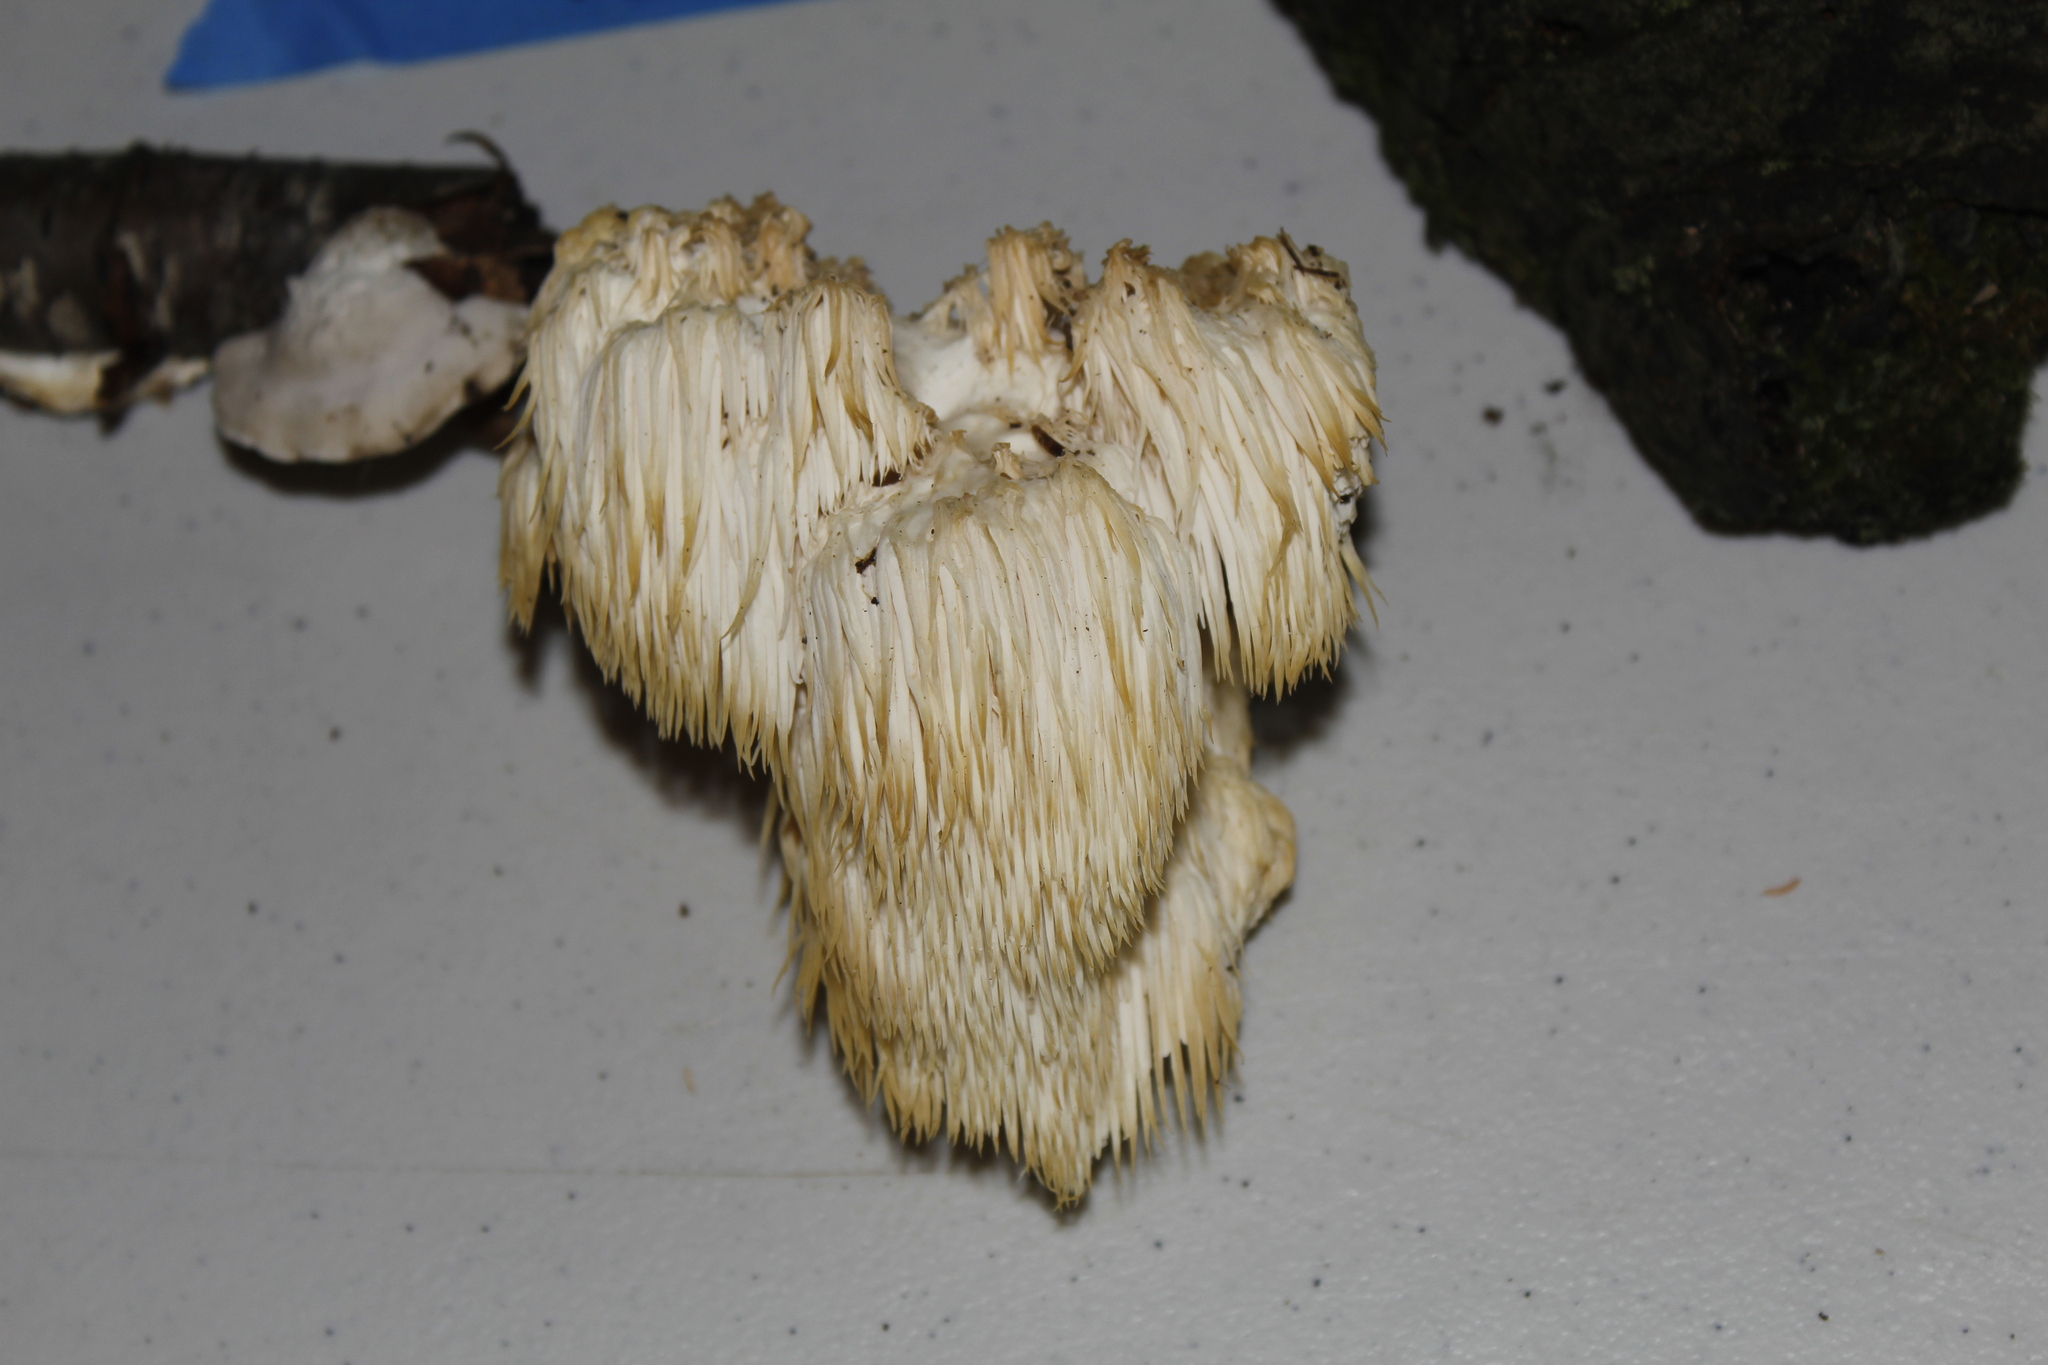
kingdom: Fungi
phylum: Basidiomycota
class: Agaricomycetes
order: Russulales
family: Hericiaceae
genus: Hericium
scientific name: Hericium erinaceus
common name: Bearded tooth
